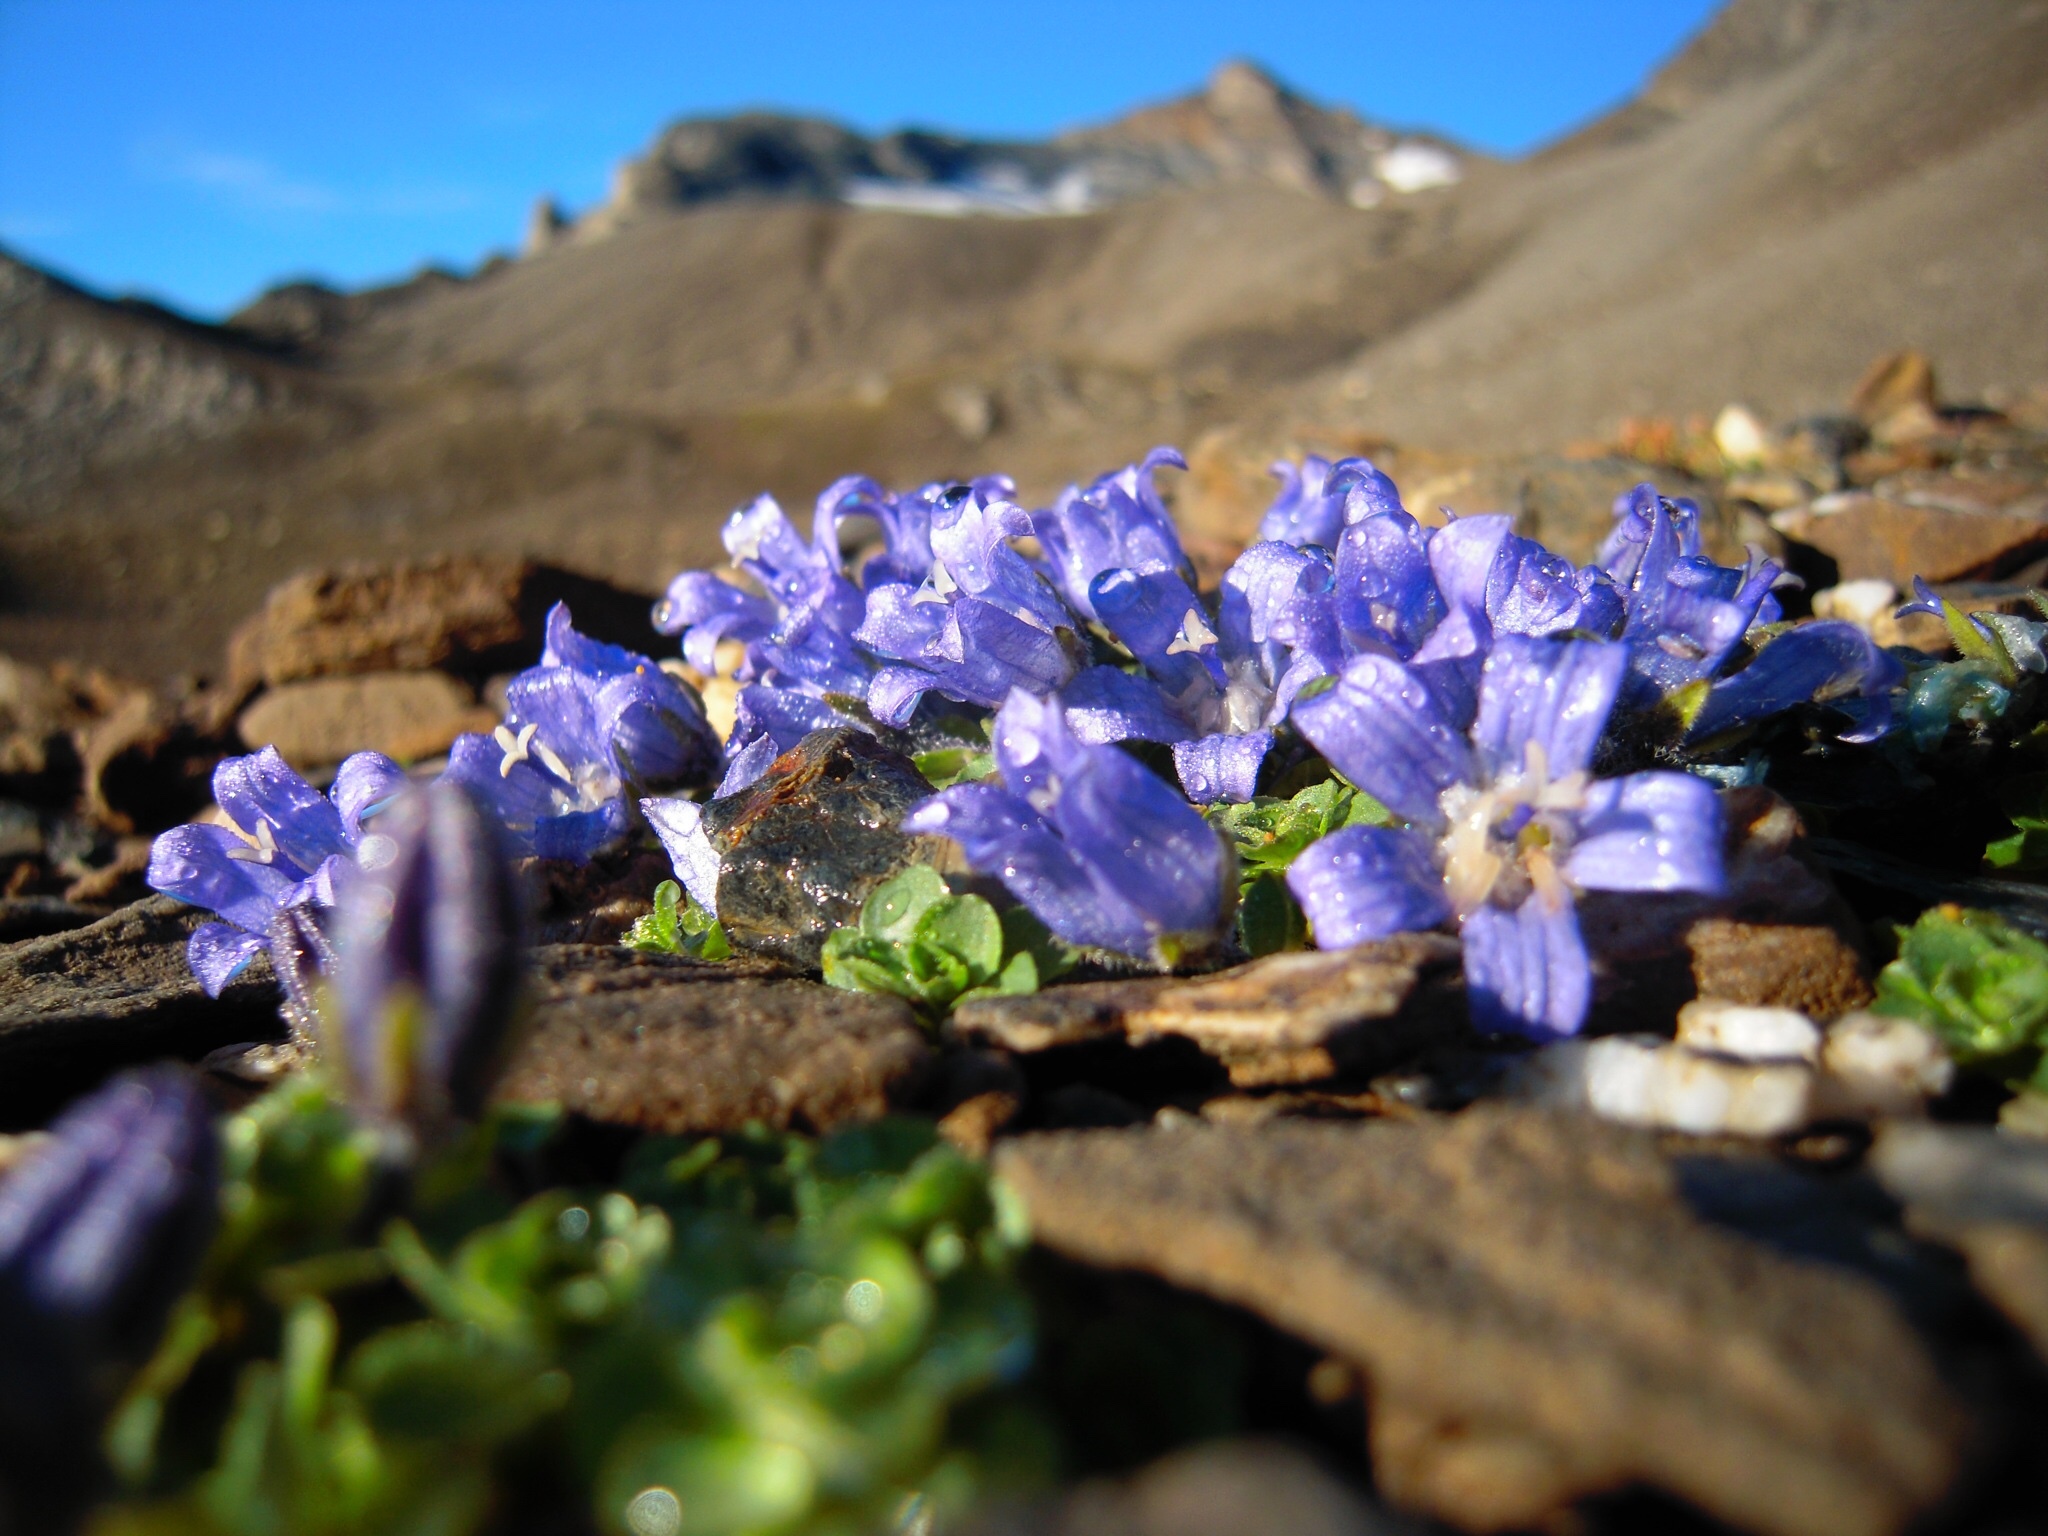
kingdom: Plantae
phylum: Tracheophyta
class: Magnoliopsida
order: Asterales
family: Campanulaceae
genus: Campanula
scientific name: Campanula cenisia
